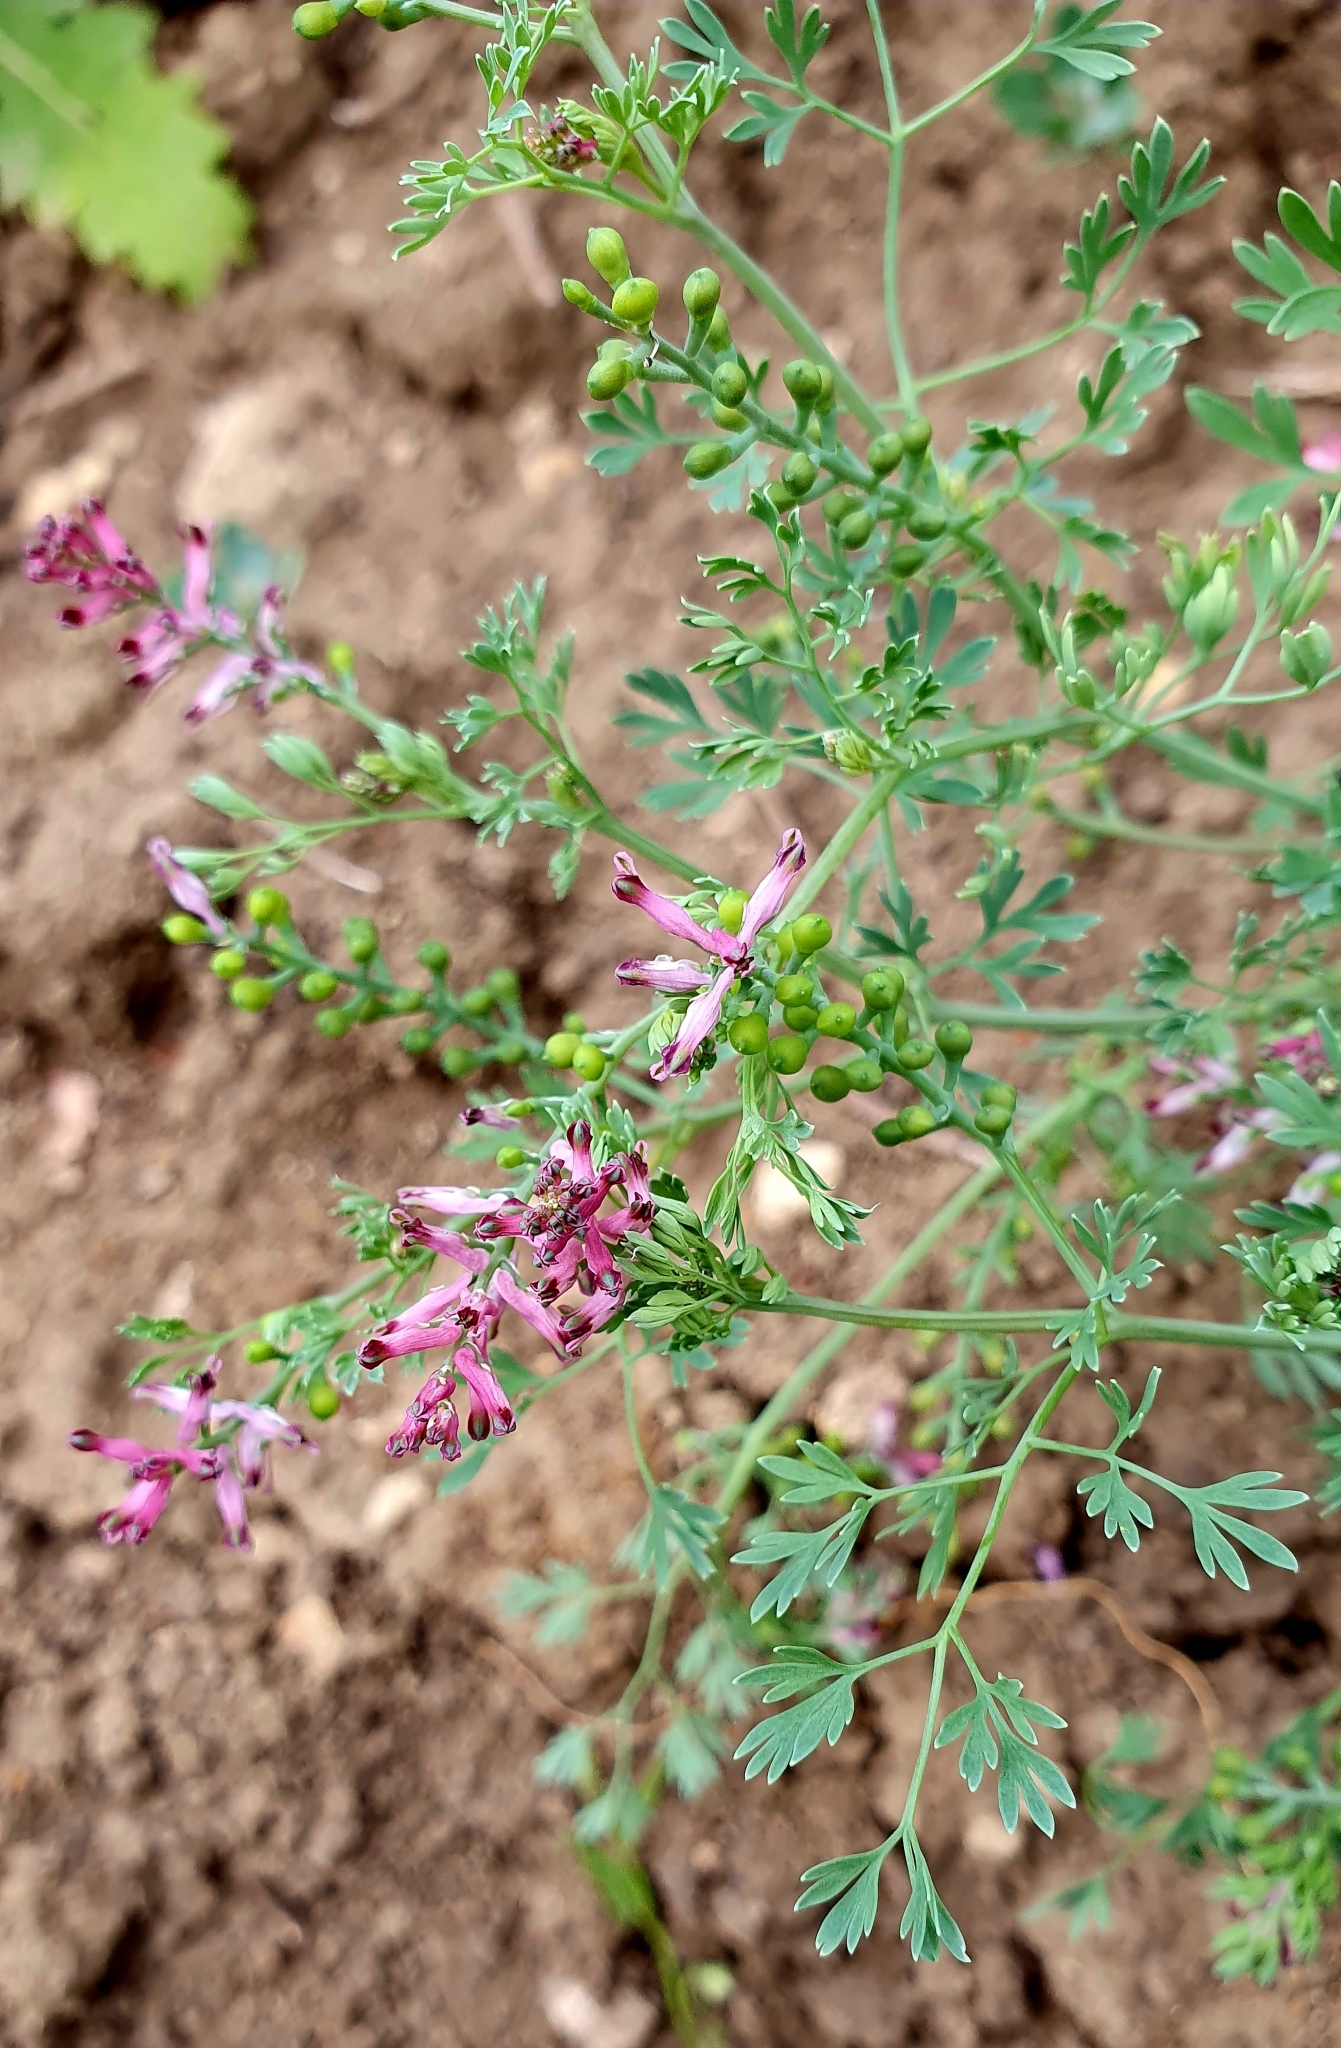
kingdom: Plantae
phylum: Tracheophyta
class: Magnoliopsida
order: Ranunculales
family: Papaveraceae
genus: Fumaria
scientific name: Fumaria schleicheri
